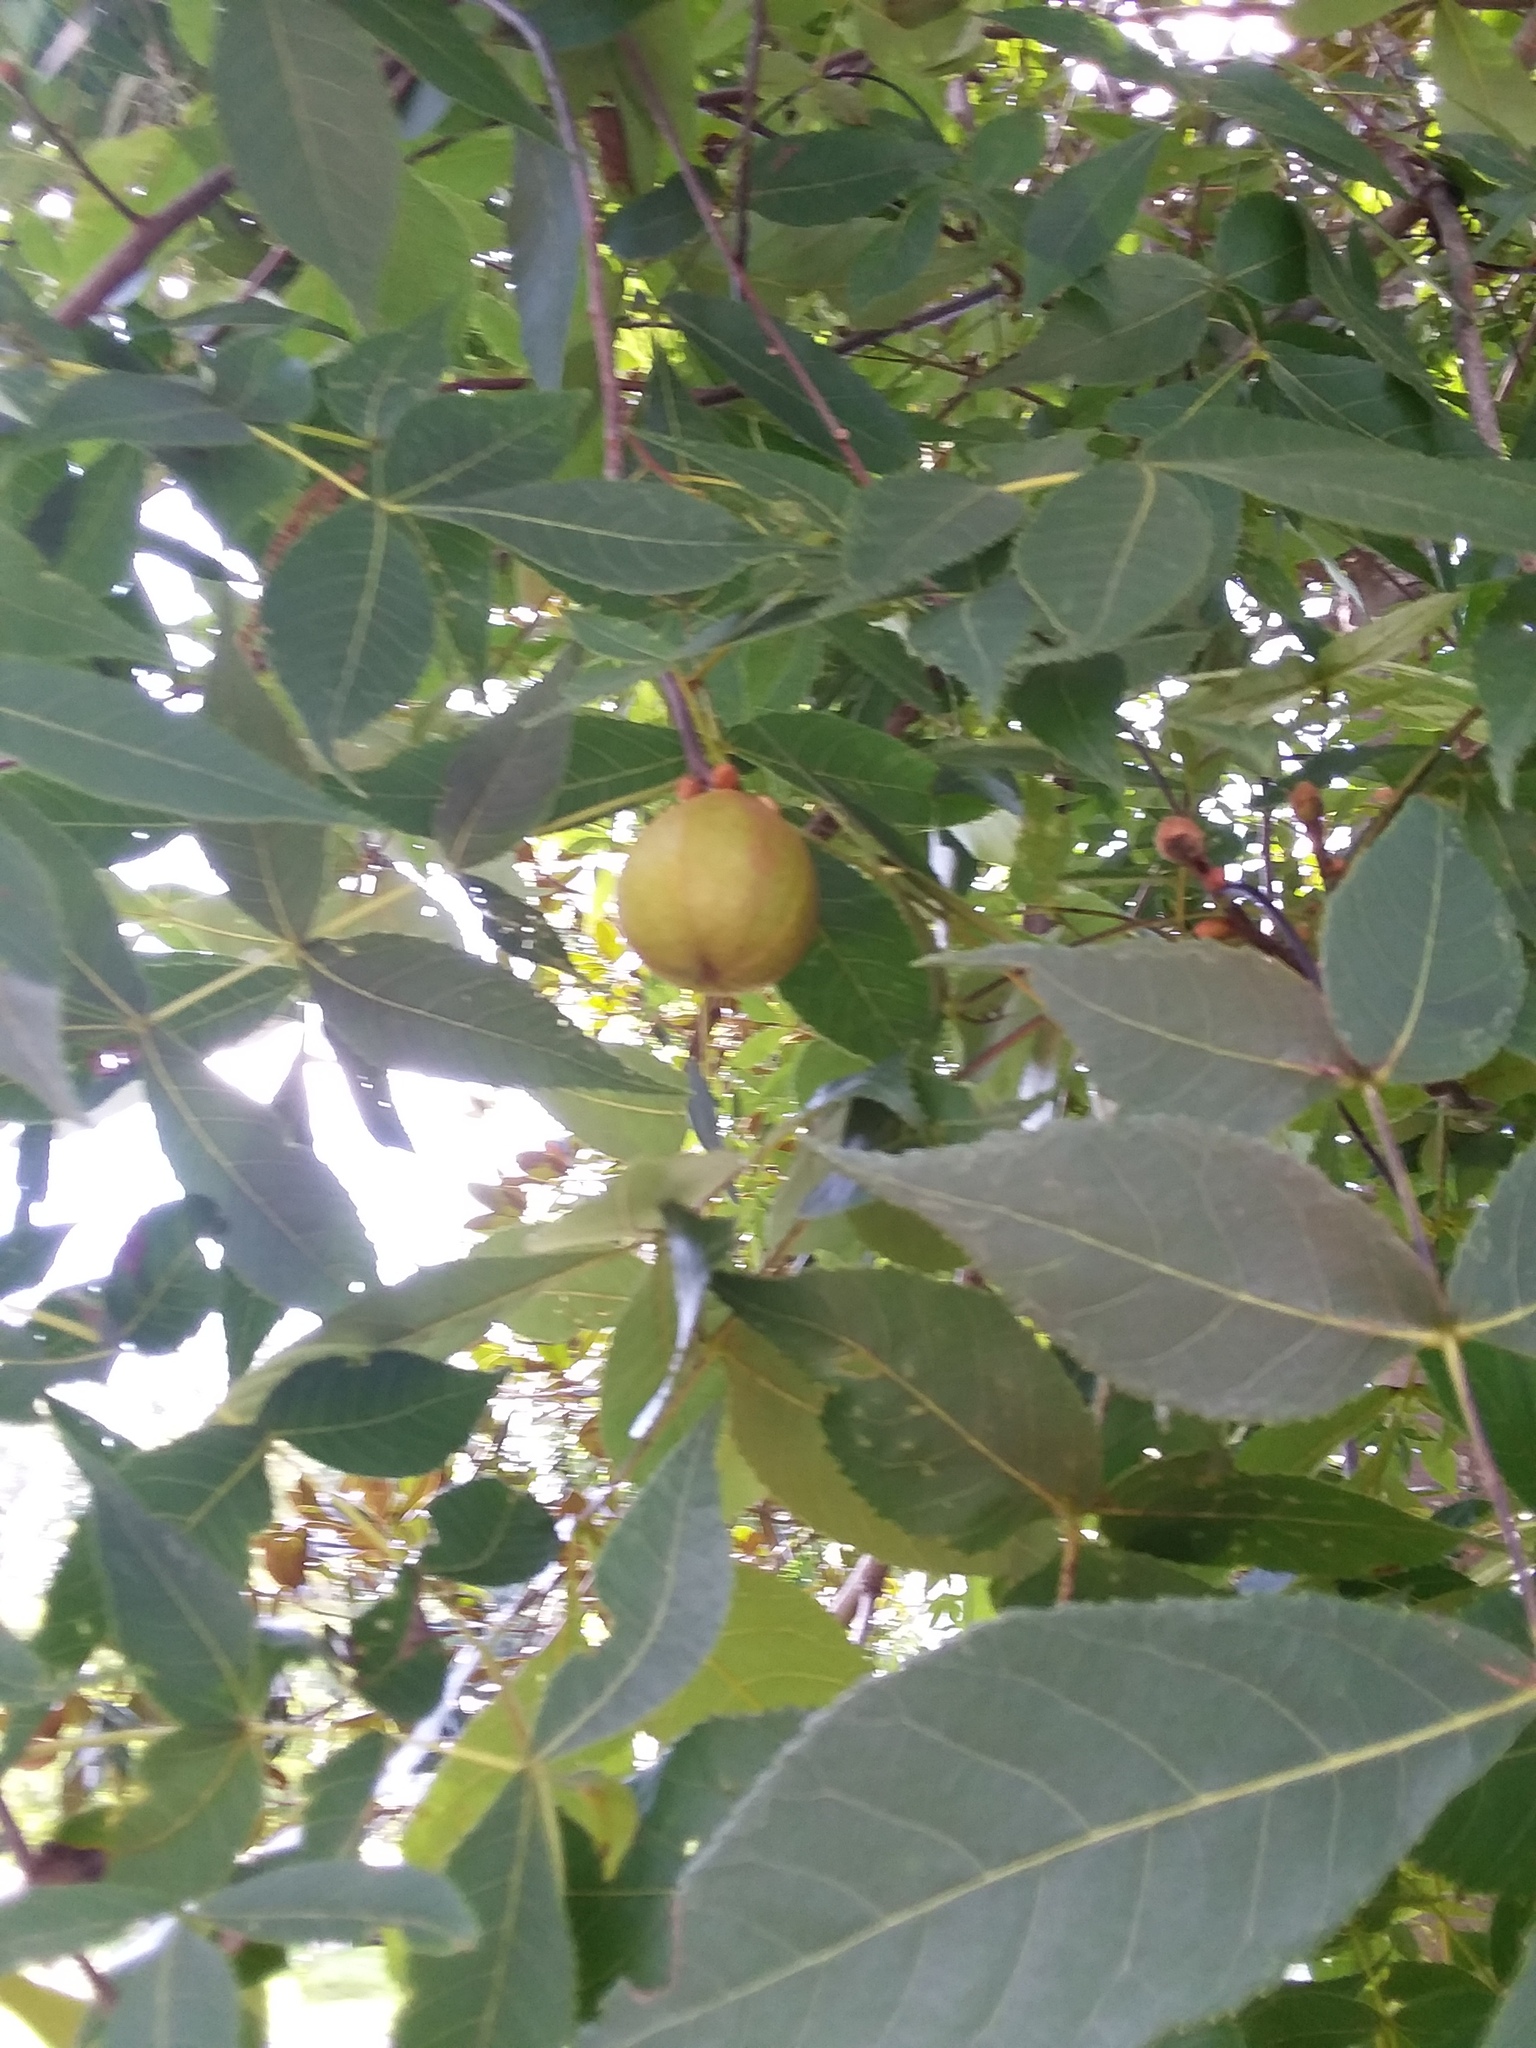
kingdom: Plantae
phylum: Tracheophyta
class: Magnoliopsida
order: Fagales
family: Juglandaceae
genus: Carya
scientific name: Carya glabra
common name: Pignut hickory
